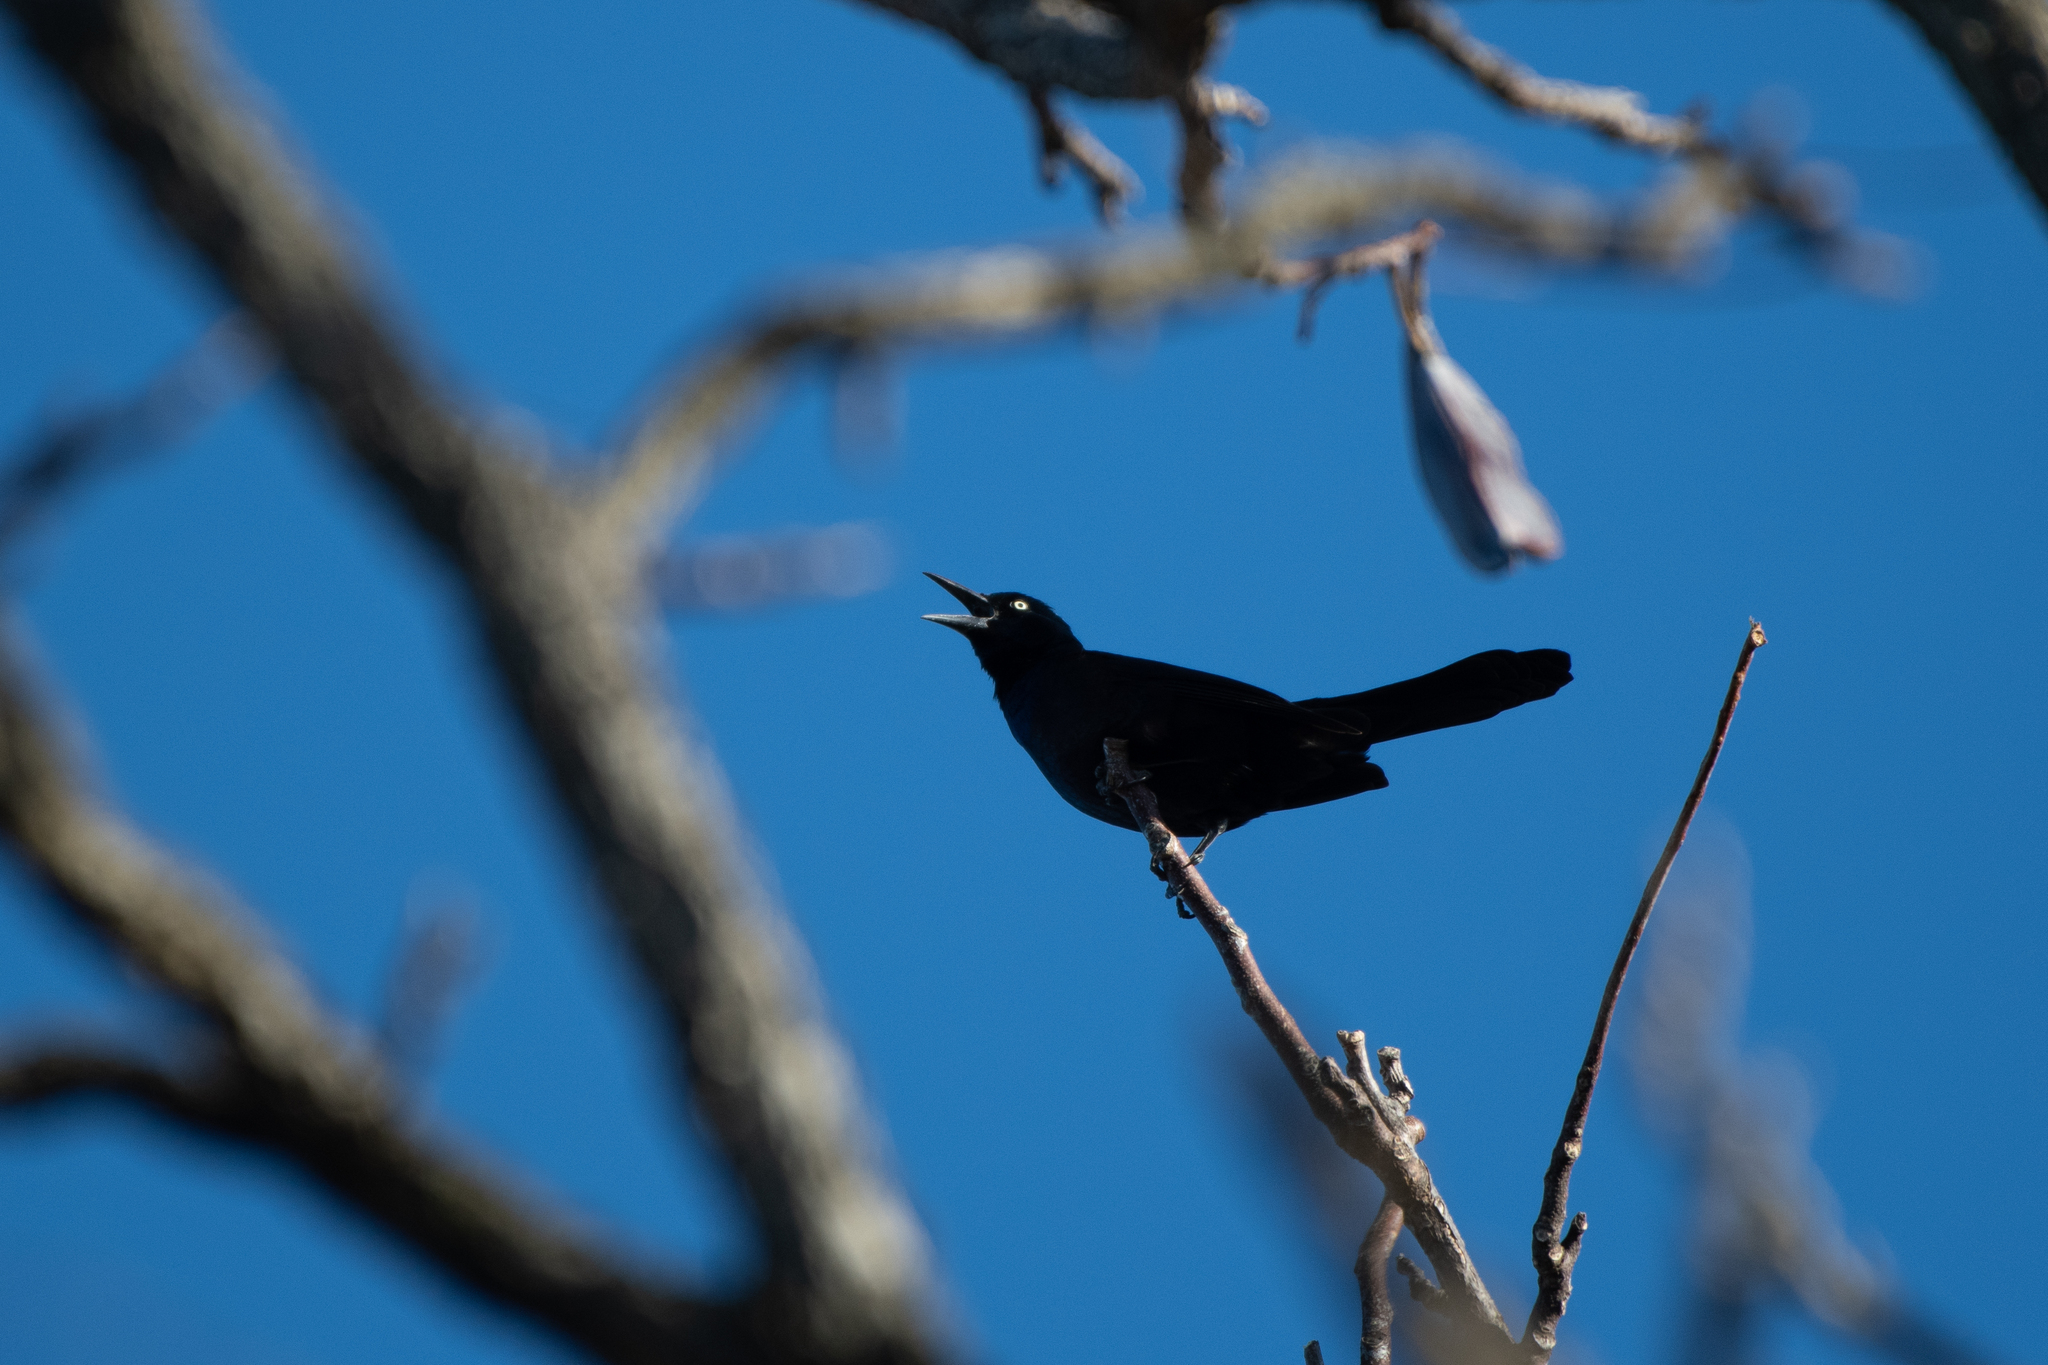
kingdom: Animalia
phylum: Chordata
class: Aves
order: Passeriformes
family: Icteridae
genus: Quiscalus
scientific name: Quiscalus quiscula
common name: Common grackle
